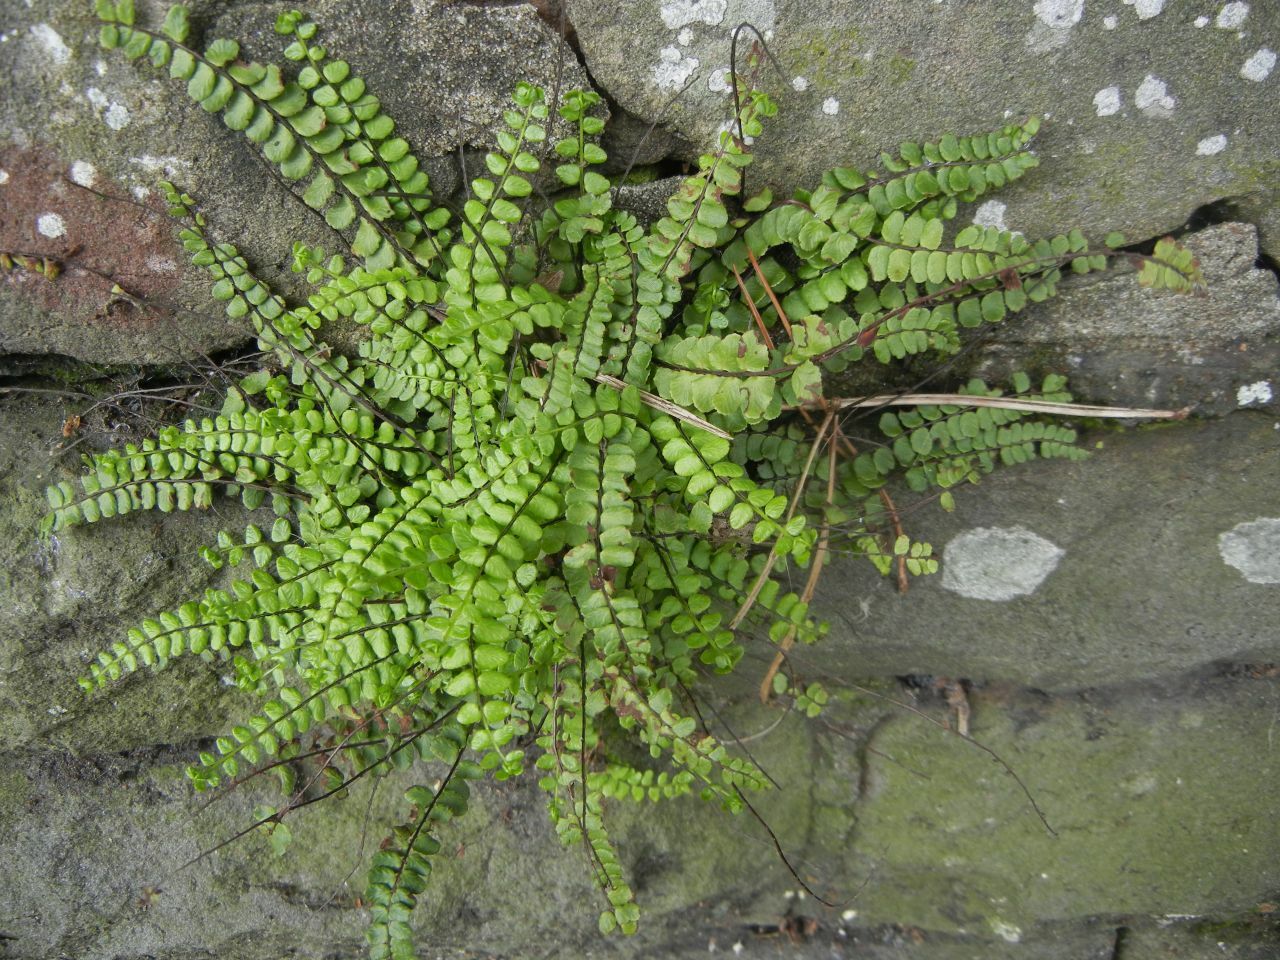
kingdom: Plantae
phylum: Tracheophyta
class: Polypodiopsida
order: Polypodiales
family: Aspleniaceae
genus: Asplenium
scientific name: Asplenium trichomanes
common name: Maidenhair spleenwort
